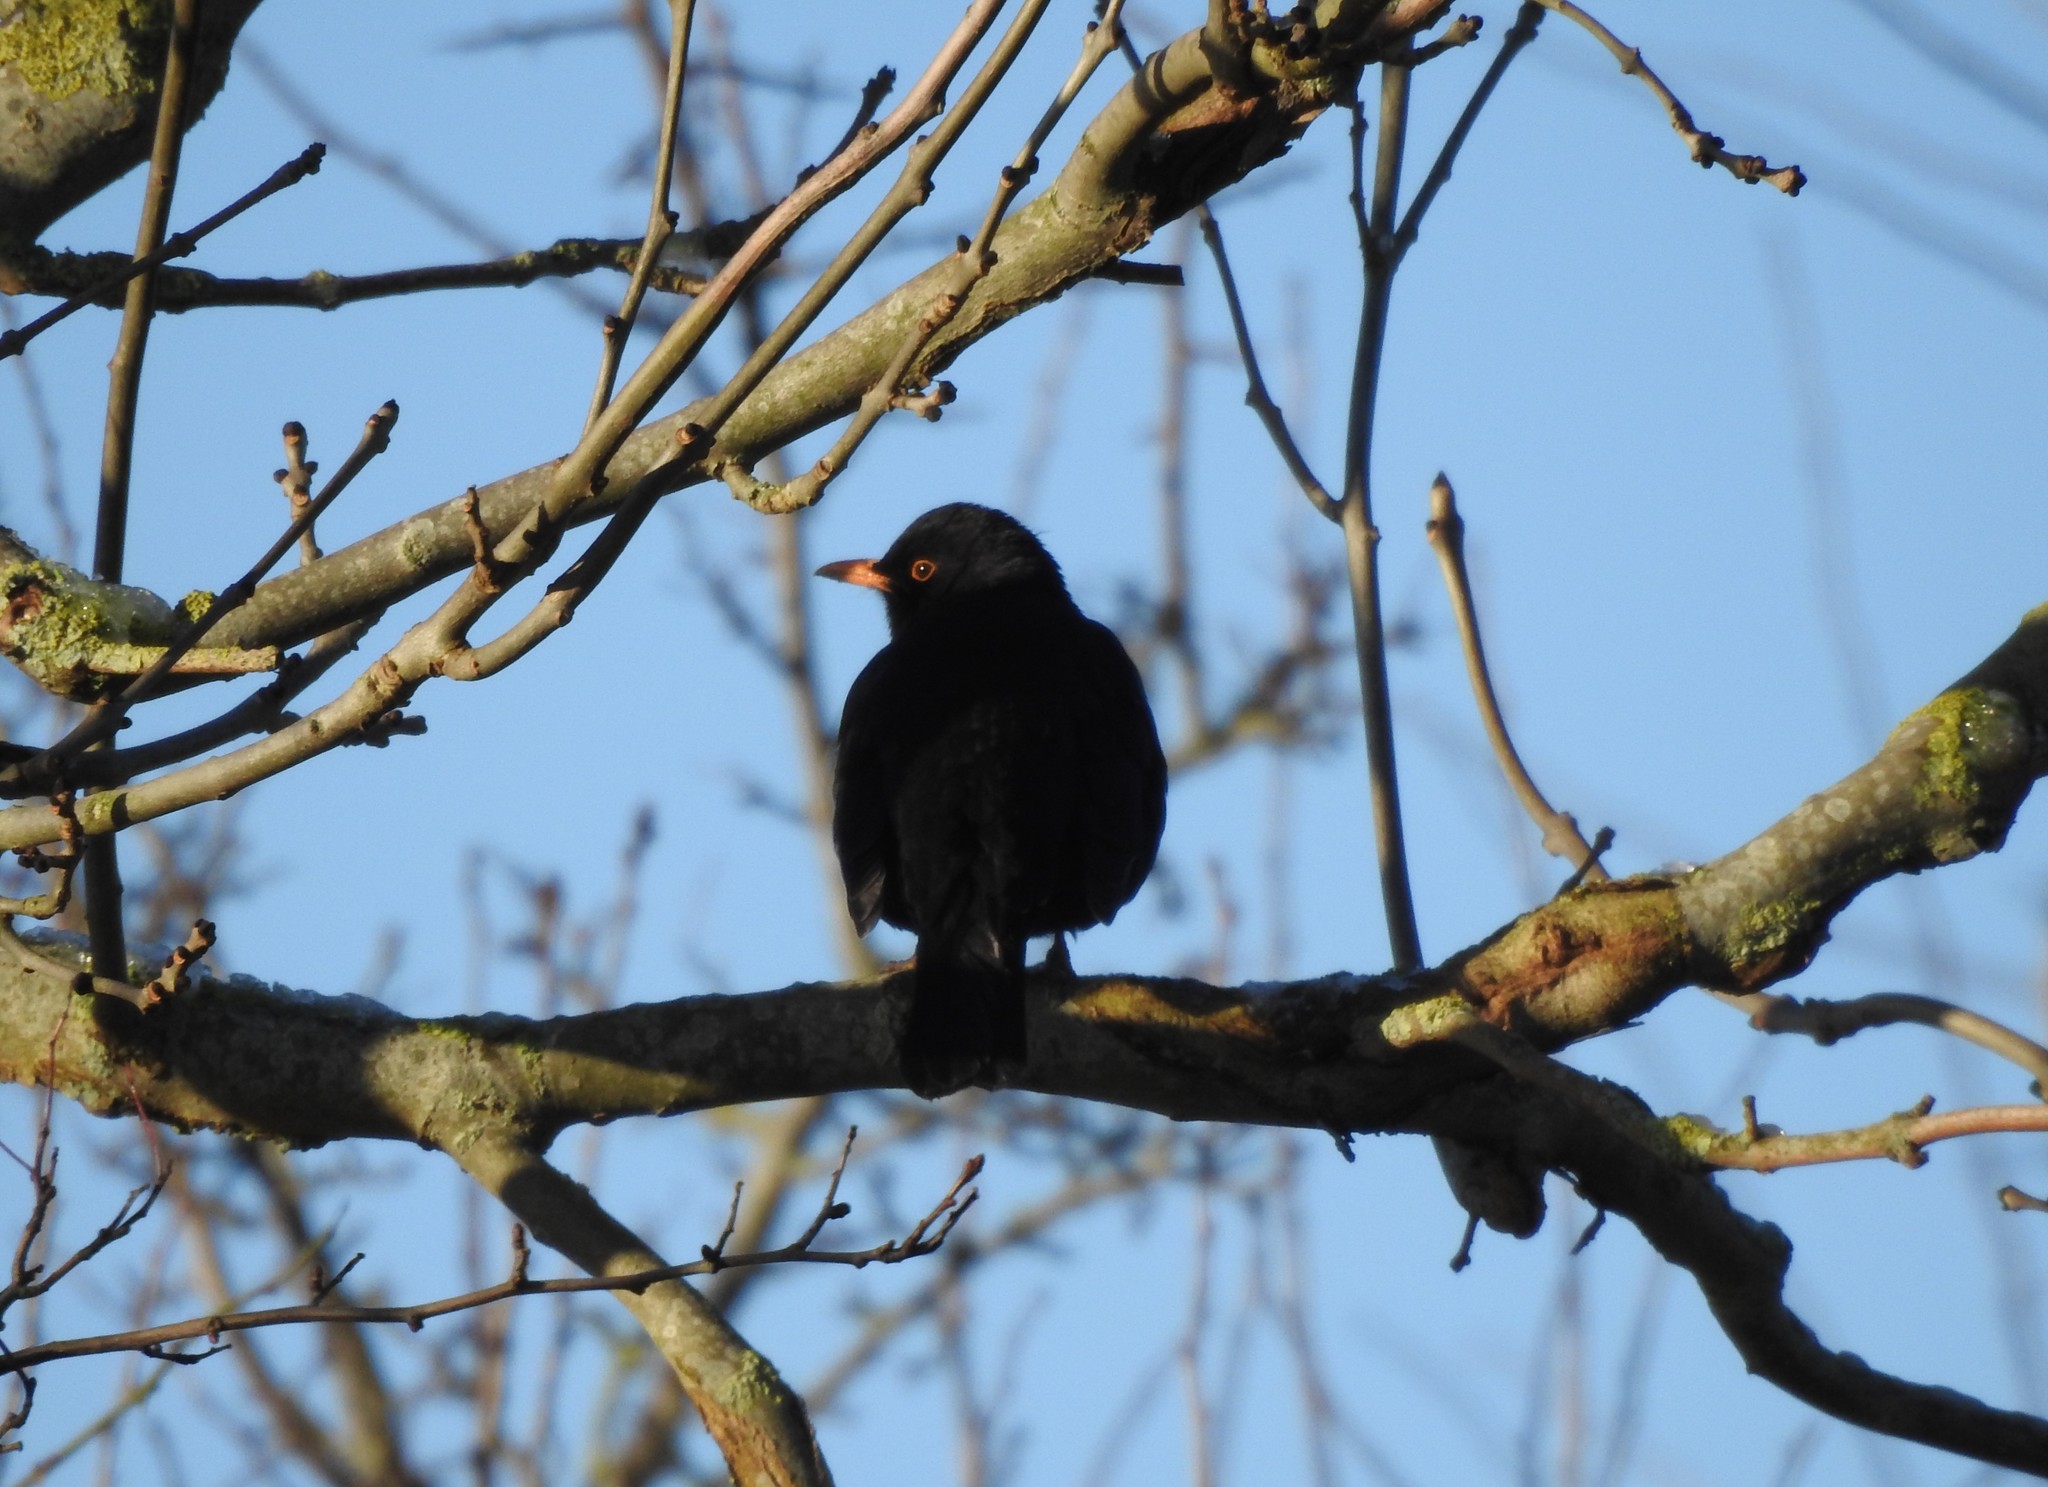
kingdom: Animalia
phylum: Chordata
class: Aves
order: Passeriformes
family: Turdidae
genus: Turdus
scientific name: Turdus merula
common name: Common blackbird
